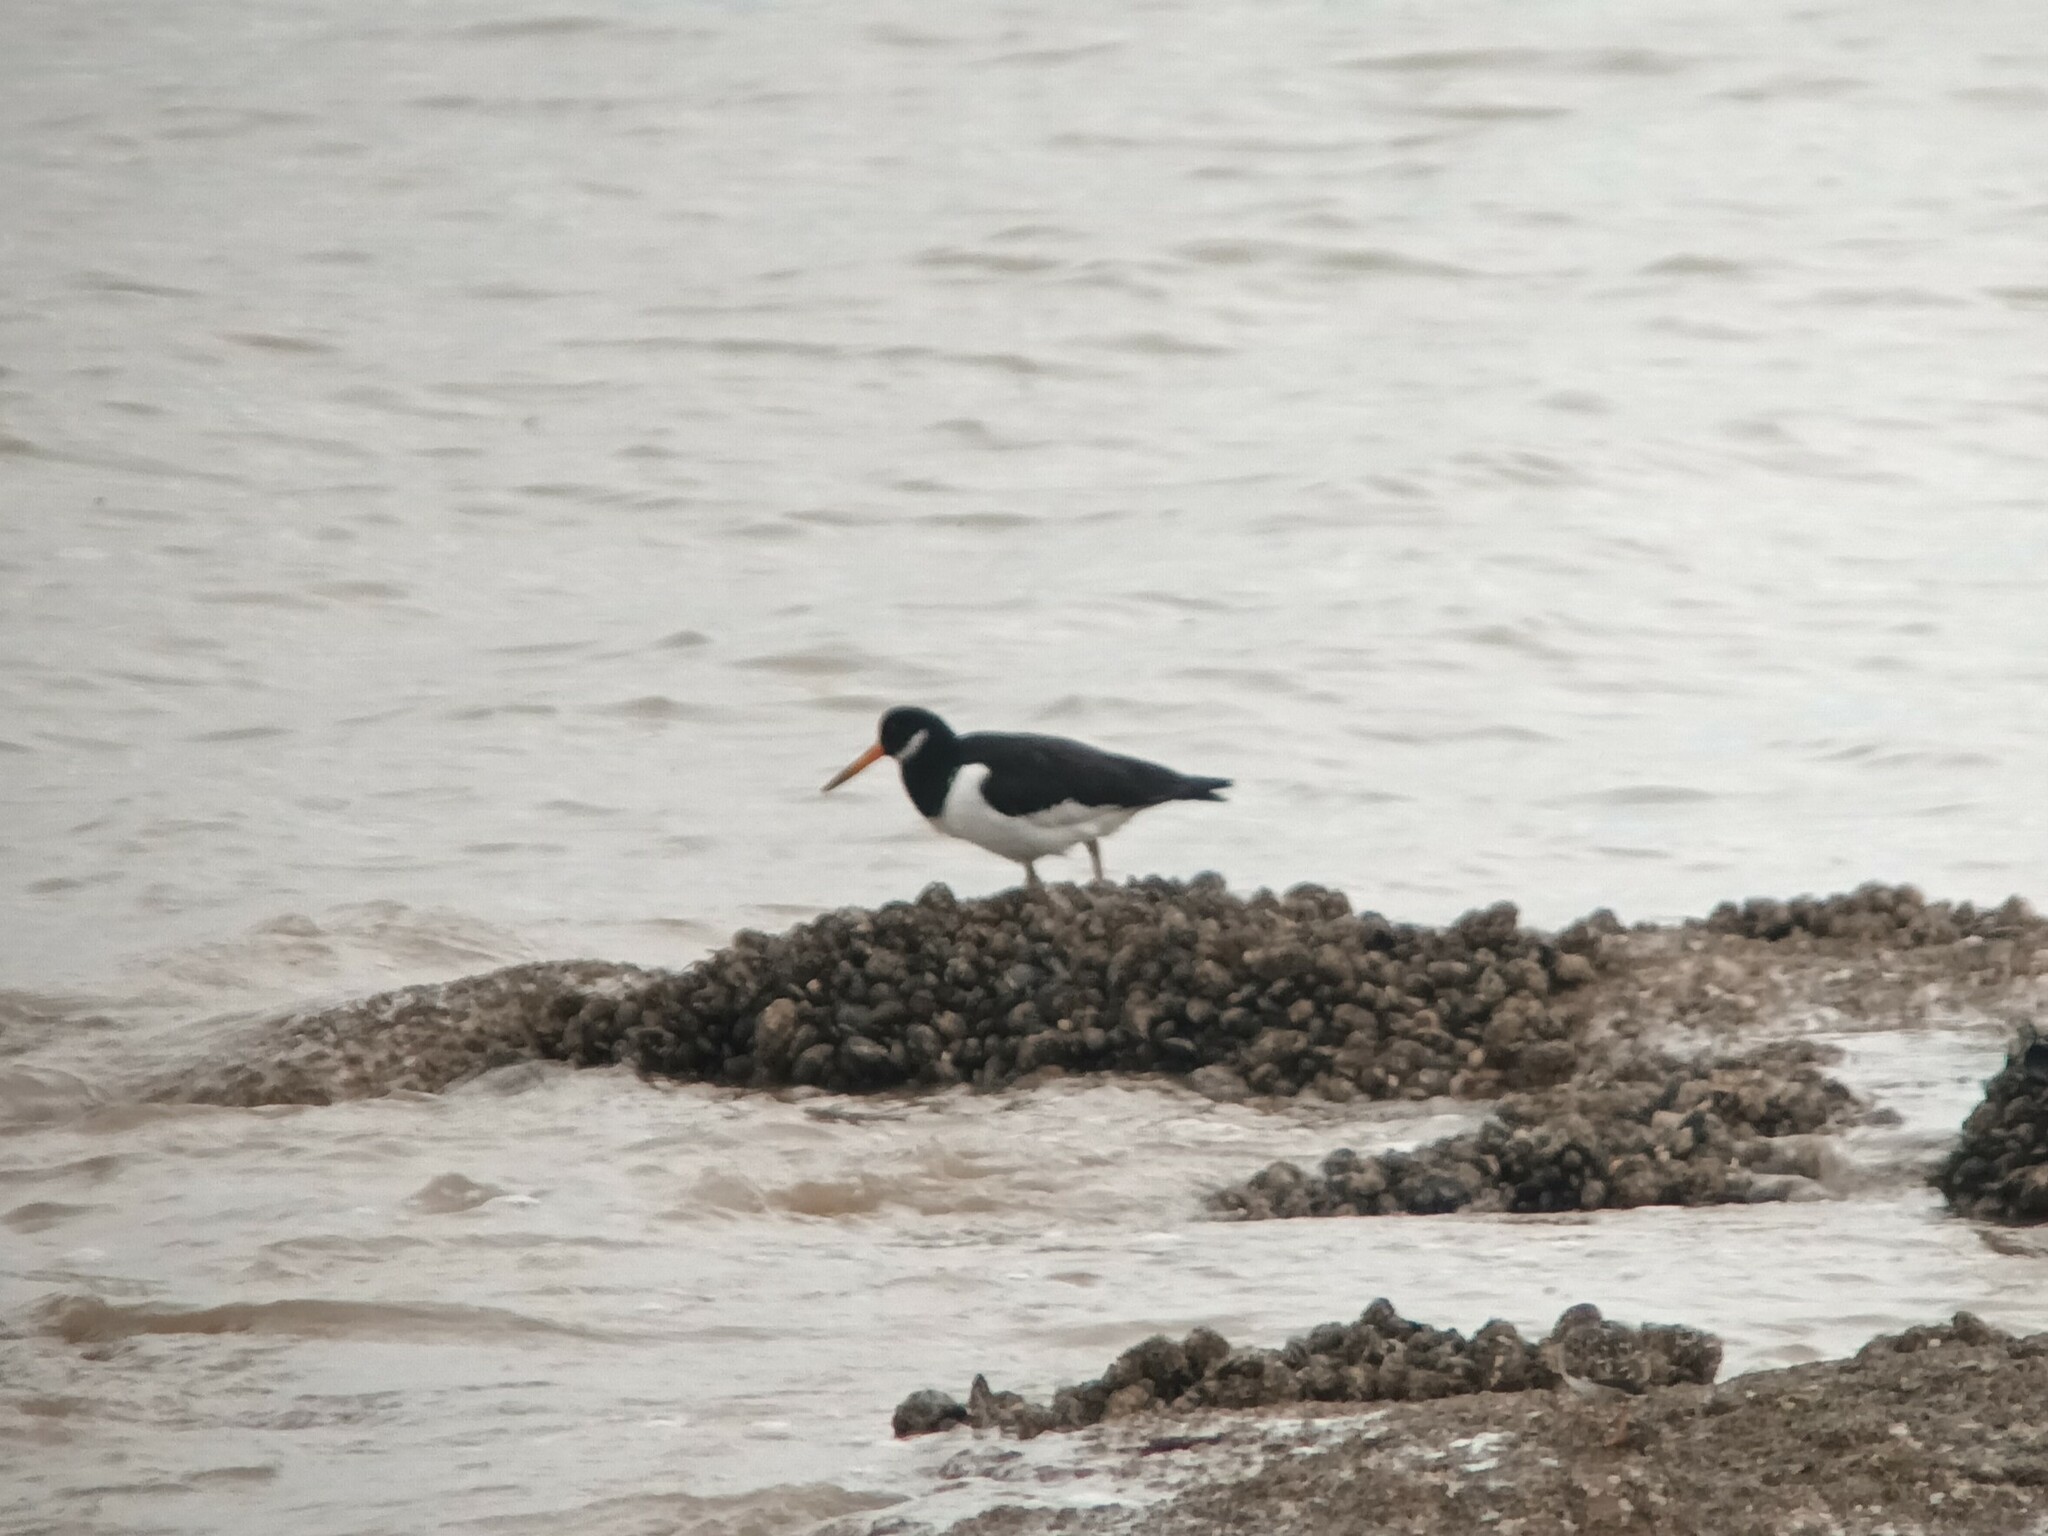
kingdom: Animalia
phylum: Chordata
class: Aves
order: Charadriiformes
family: Haematopodidae
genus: Haematopus
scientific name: Haematopus ostralegus
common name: Eurasian oystercatcher
